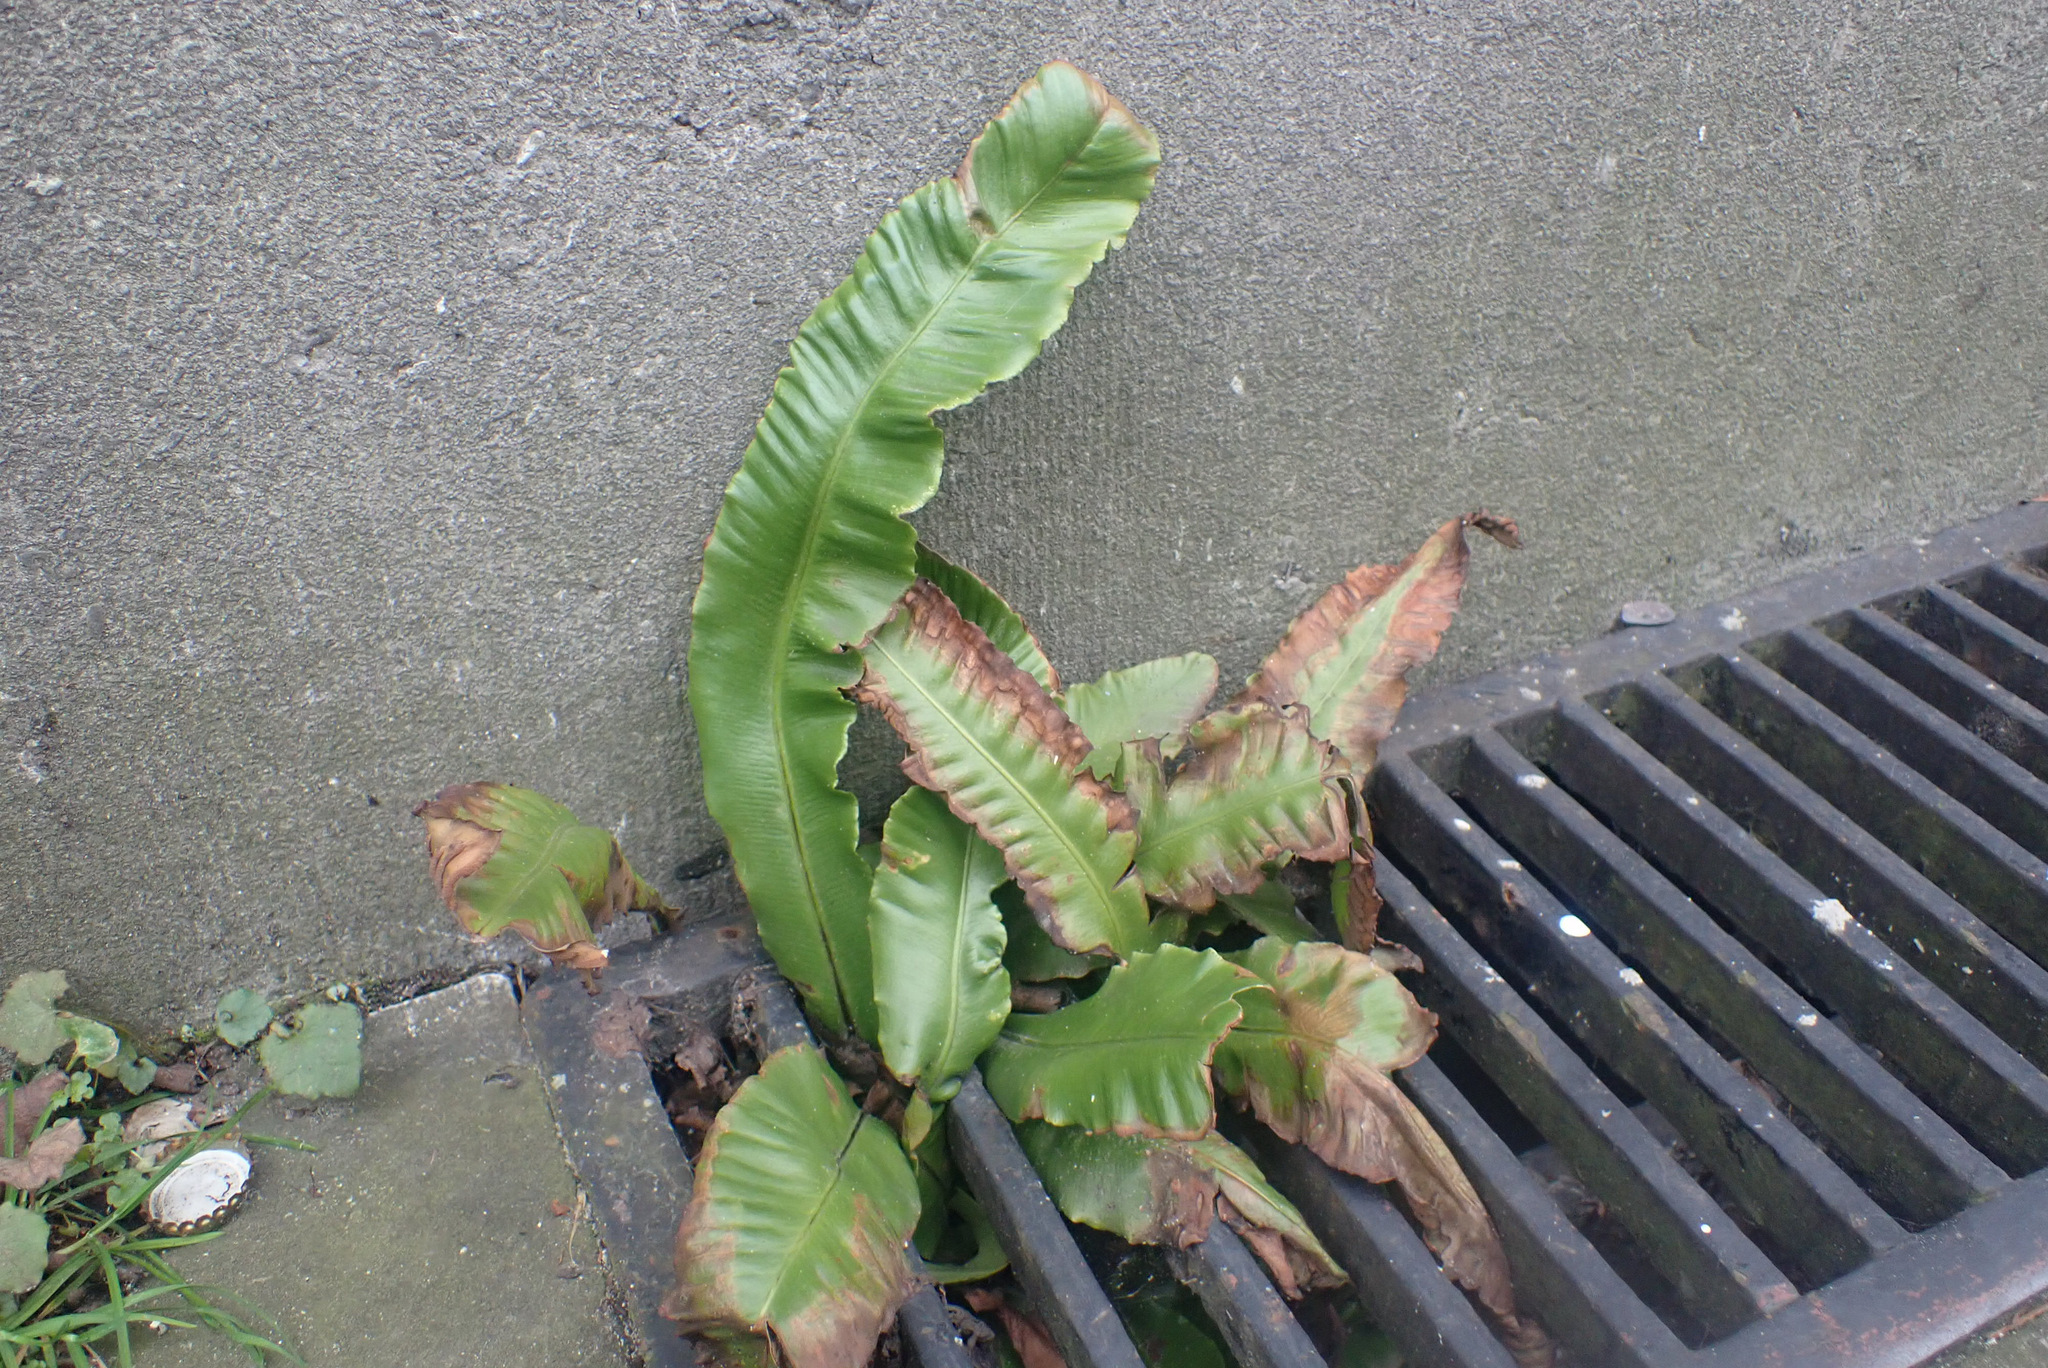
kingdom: Plantae
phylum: Tracheophyta
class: Polypodiopsida
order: Polypodiales
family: Aspleniaceae
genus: Asplenium
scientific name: Asplenium scolopendrium
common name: Hart's-tongue fern
